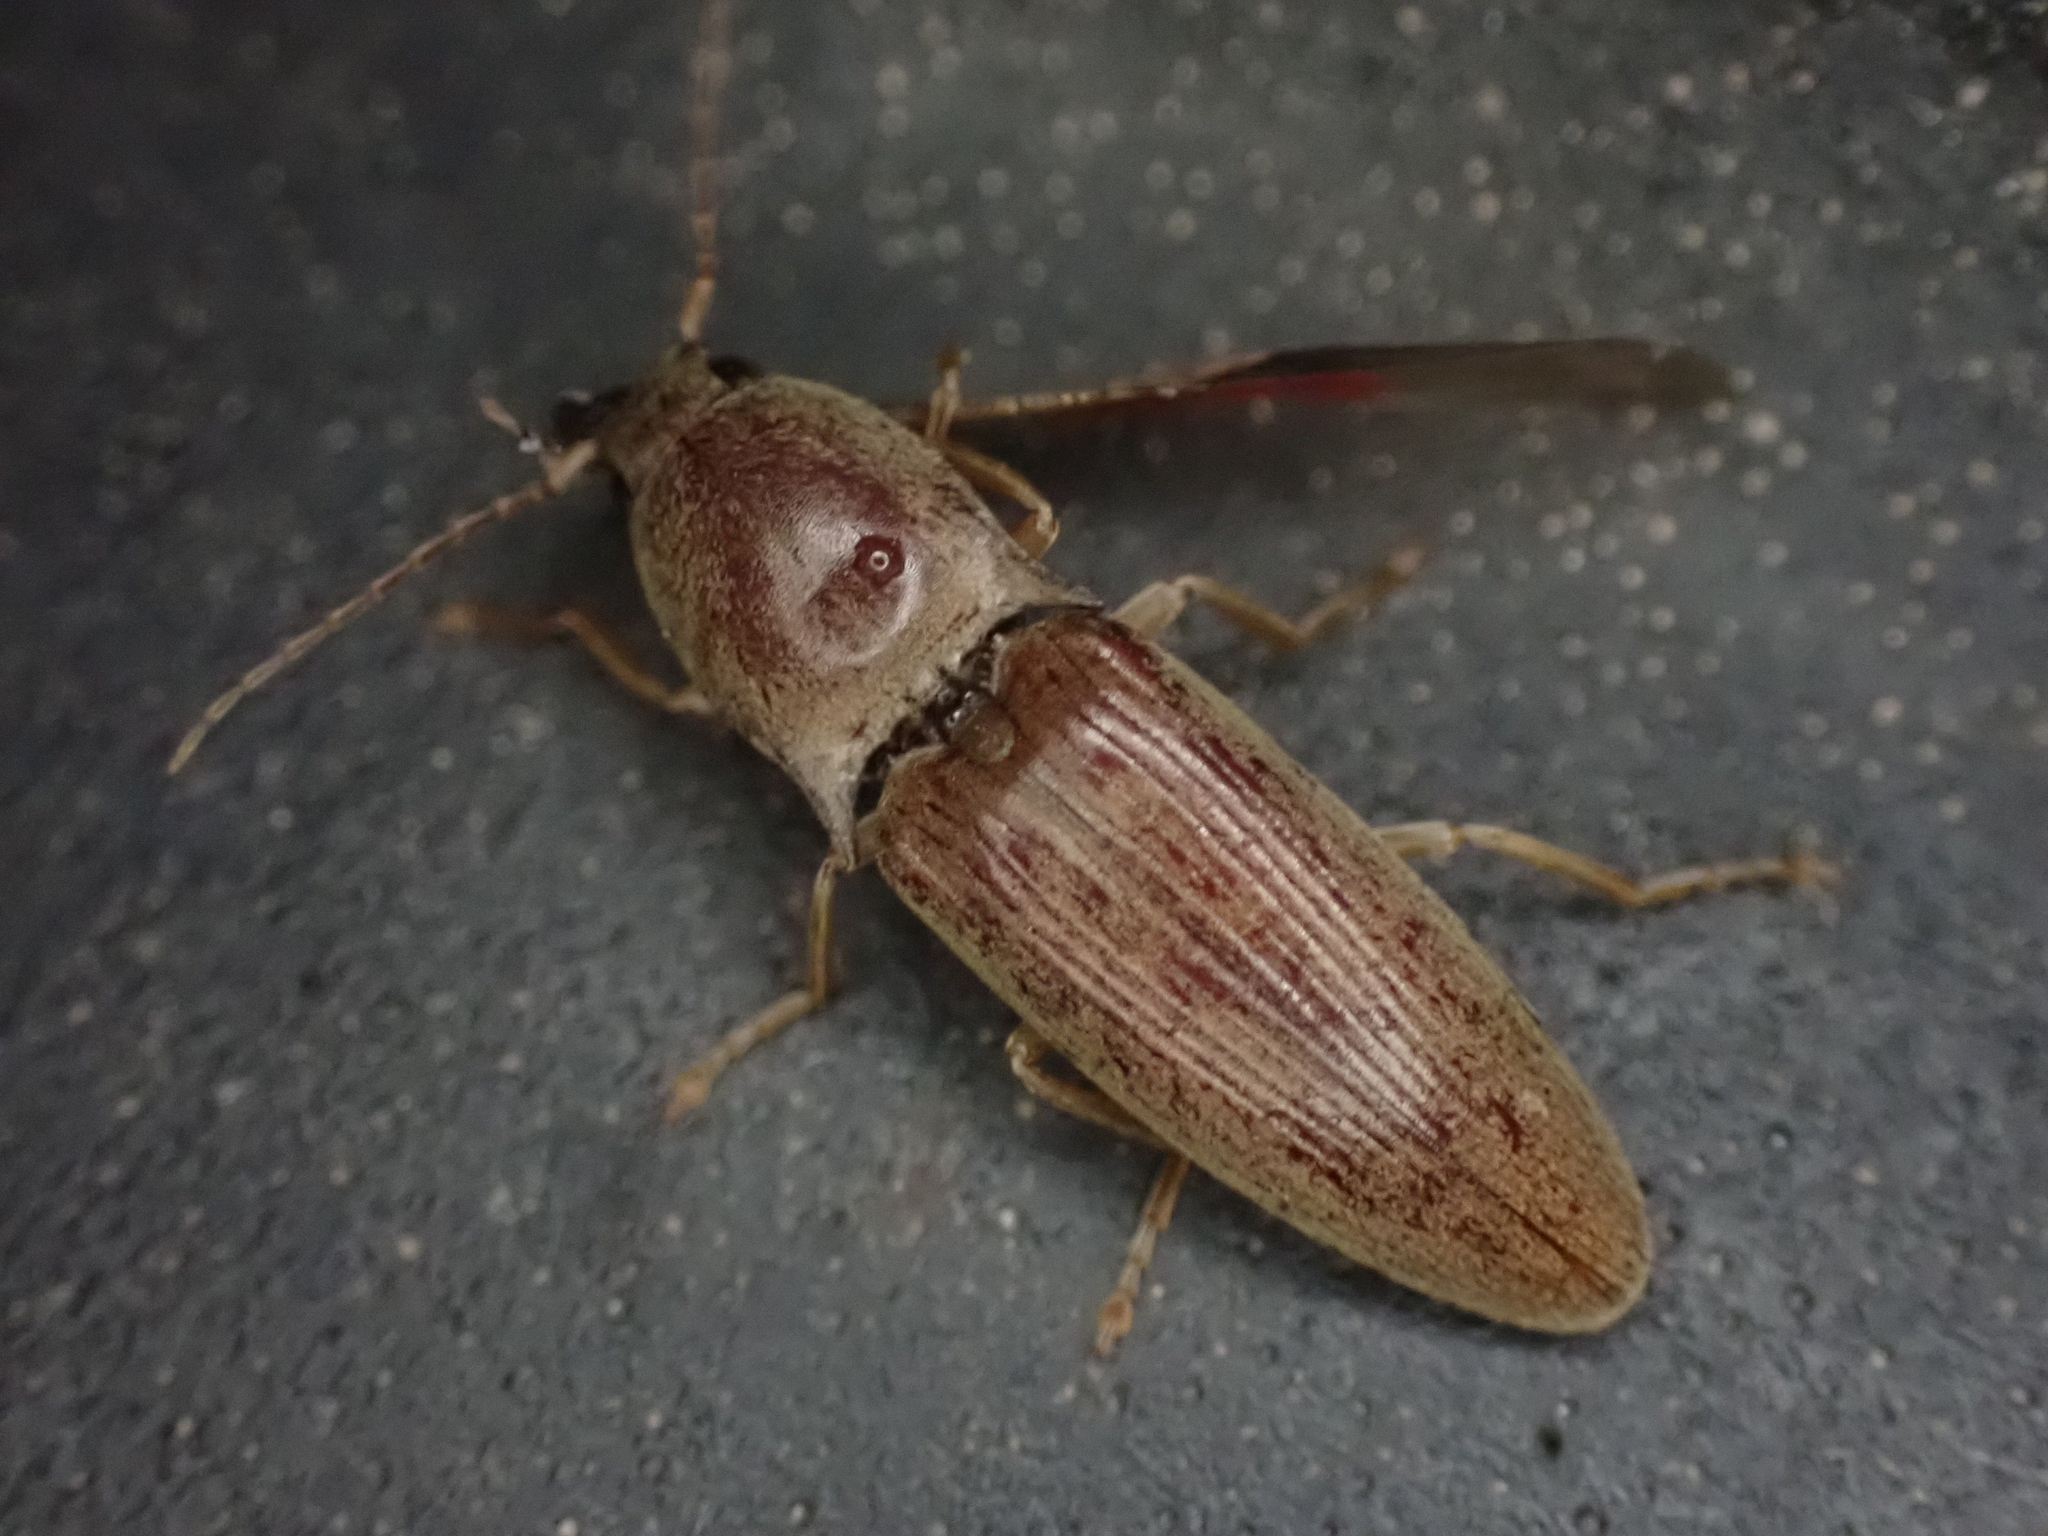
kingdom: Animalia
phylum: Arthropoda
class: Insecta
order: Coleoptera
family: Elateridae
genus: Monocrepidius
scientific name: Monocrepidius lividus
